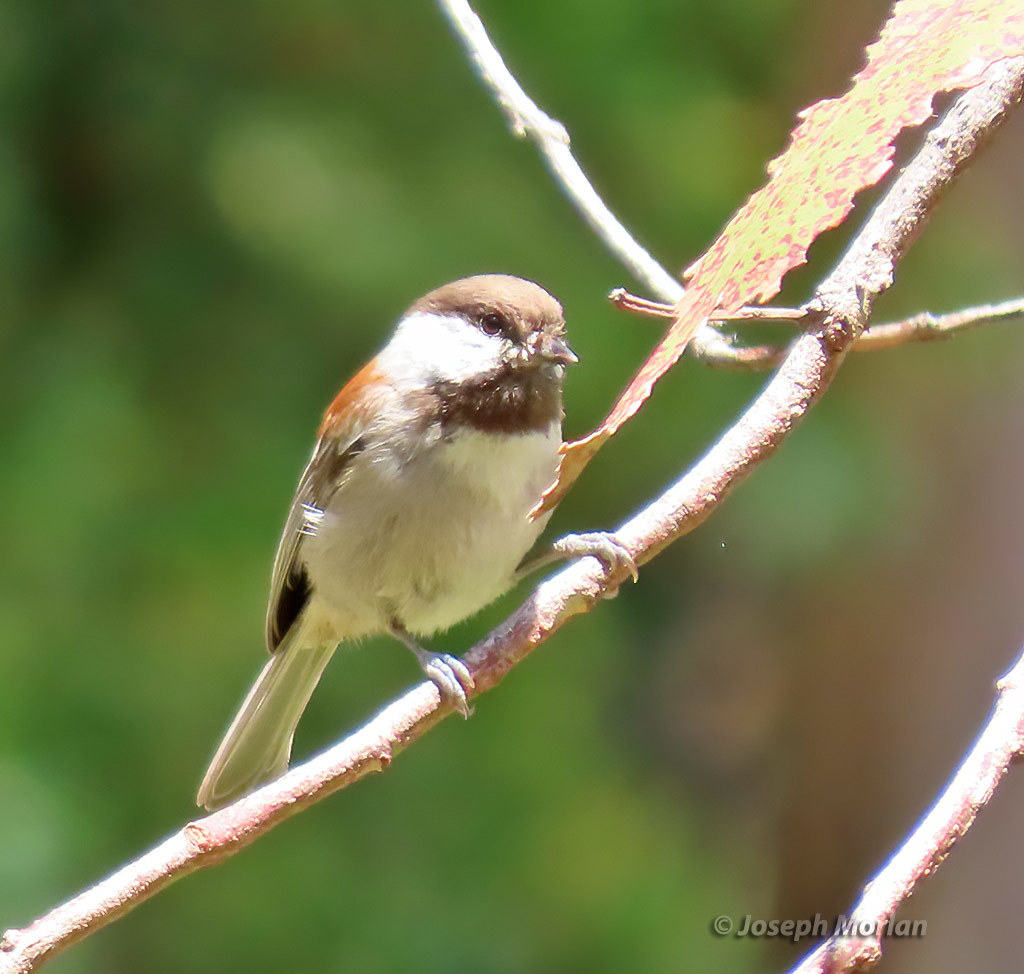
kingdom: Animalia
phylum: Chordata
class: Aves
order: Passeriformes
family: Paridae
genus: Poecile
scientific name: Poecile rufescens
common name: Chestnut-backed chickadee
